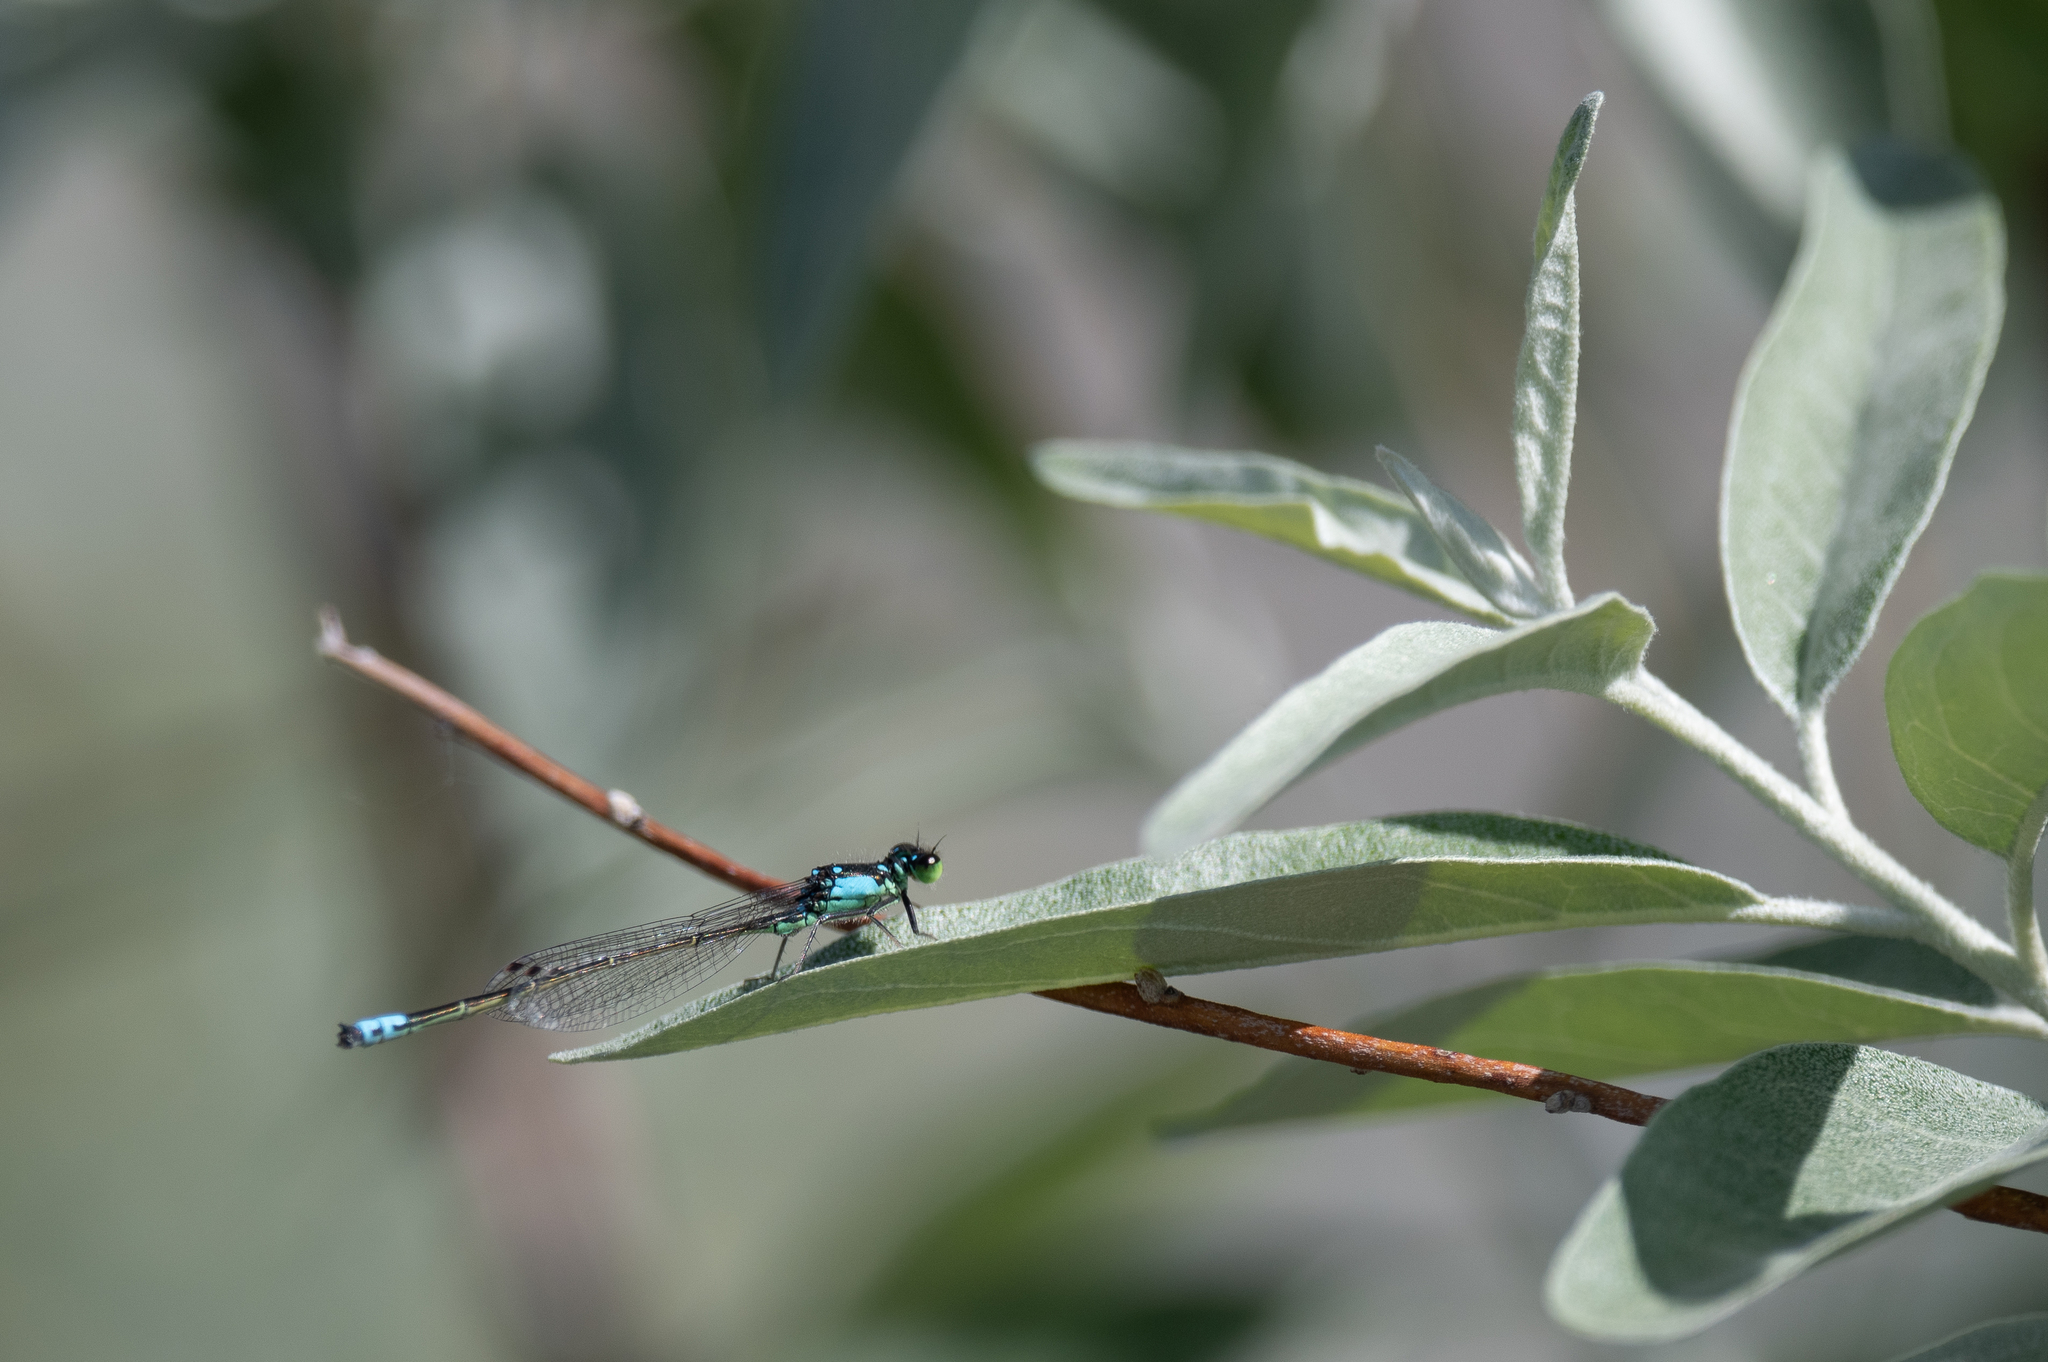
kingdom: Animalia
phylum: Arthropoda
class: Insecta
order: Odonata
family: Coenagrionidae
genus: Ischnura
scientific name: Ischnura cervula
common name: Pacific forktail
